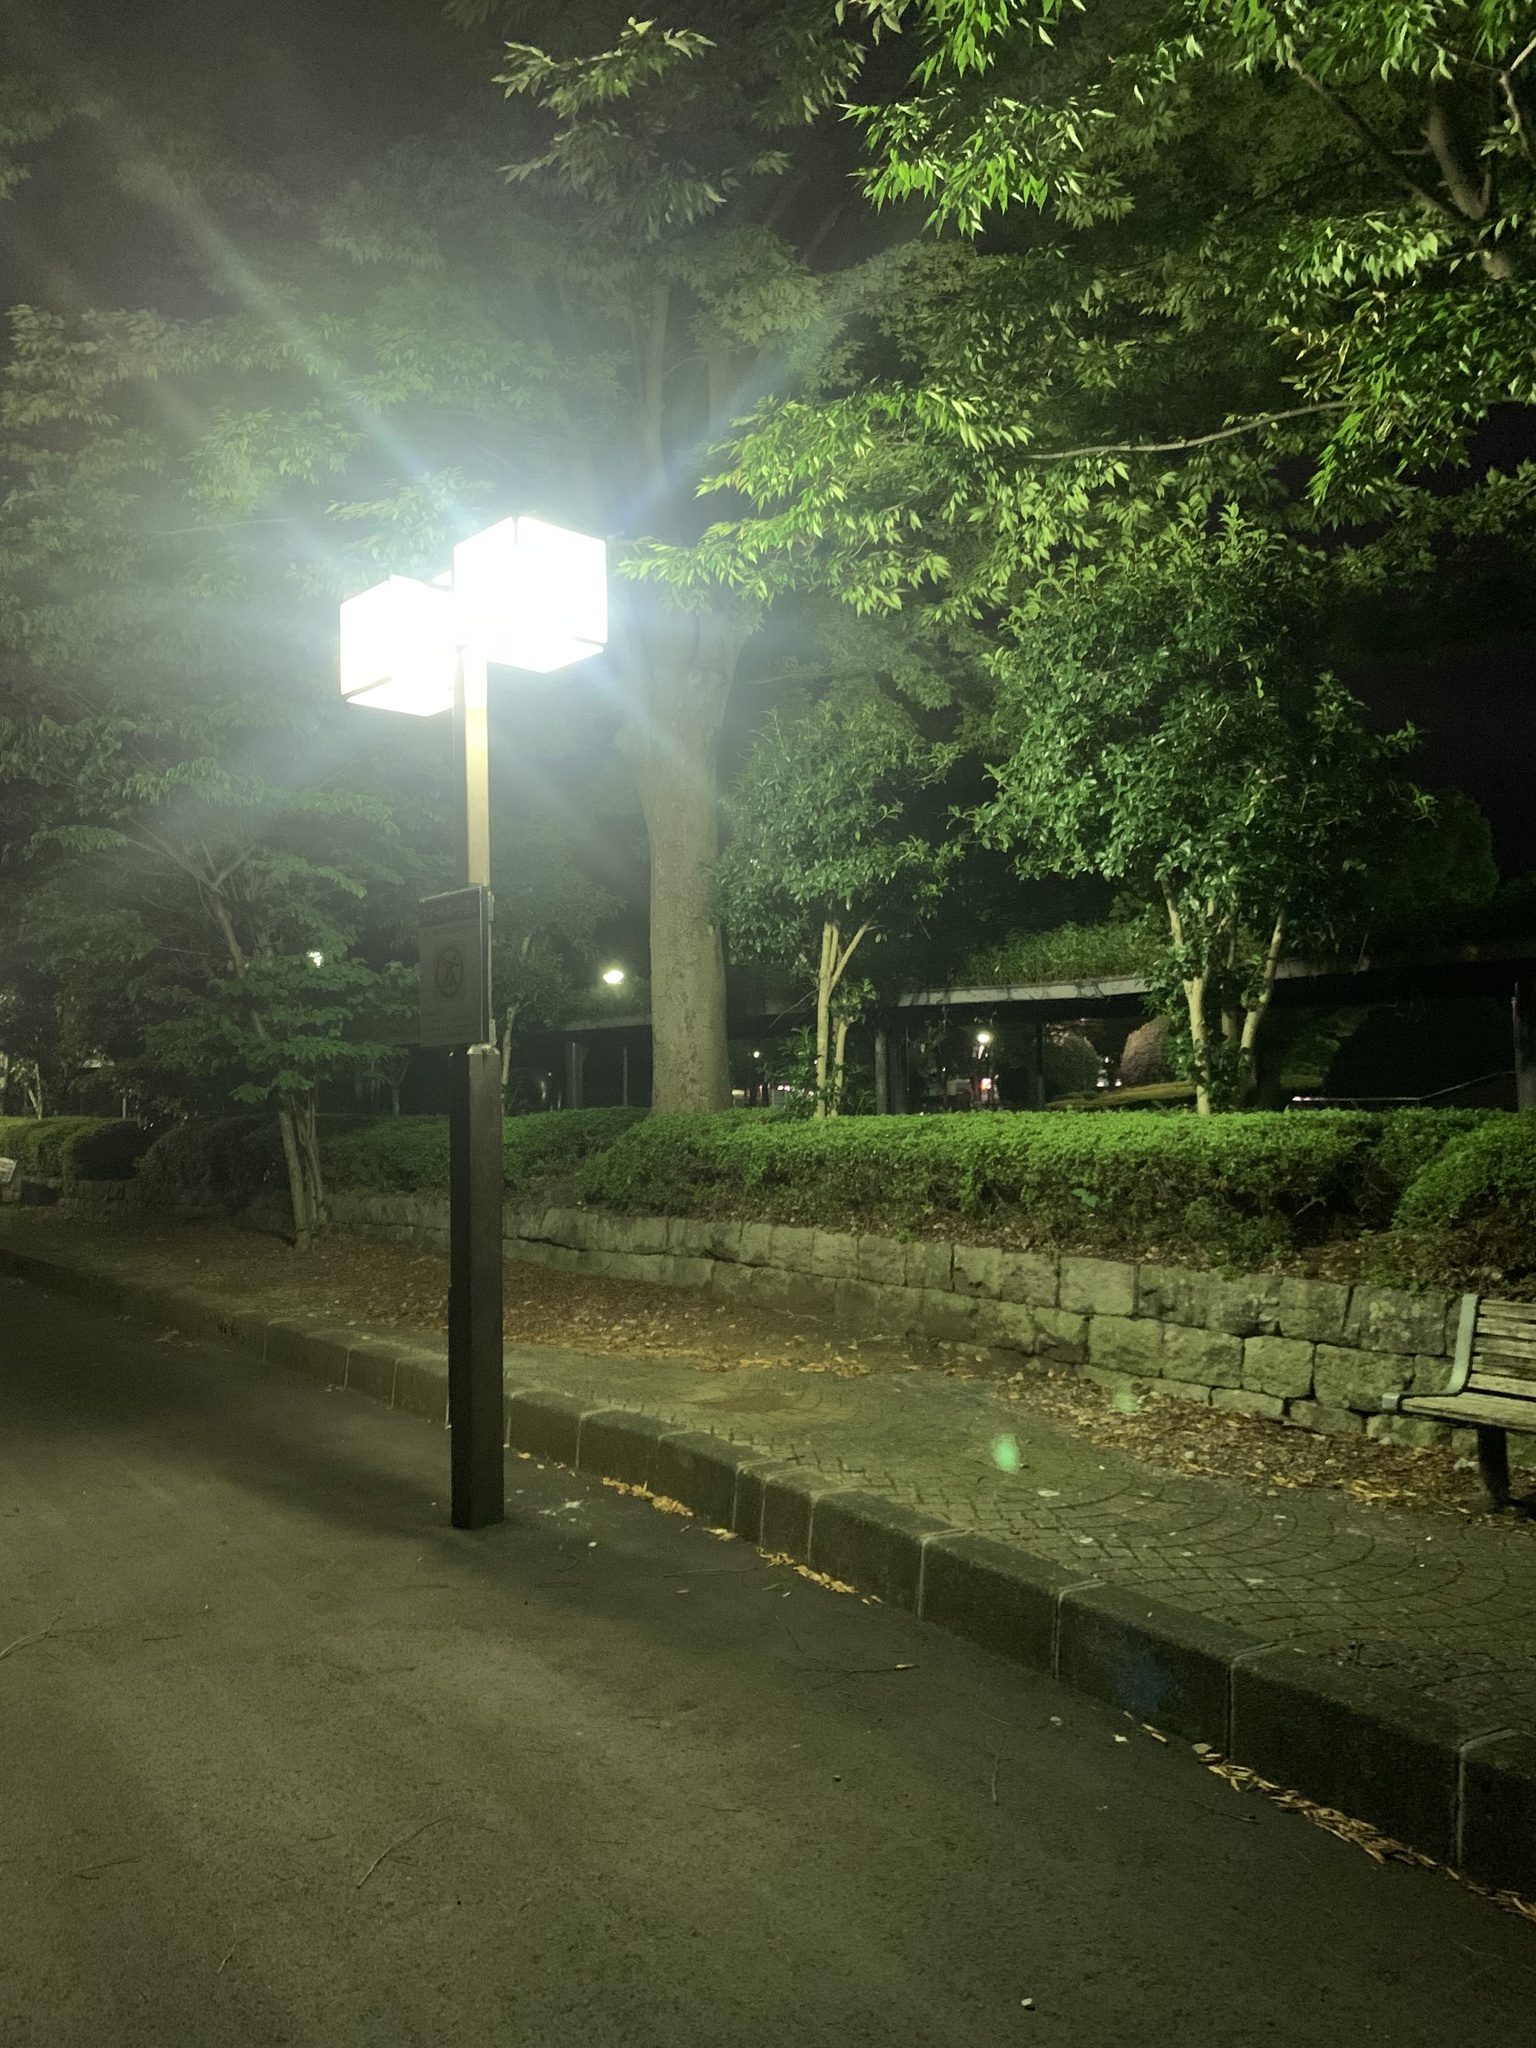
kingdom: Animalia
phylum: Arthropoda
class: Insecta
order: Hemiptera
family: Cicadidae
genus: Platypleura
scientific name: Platypleura kaempferi
